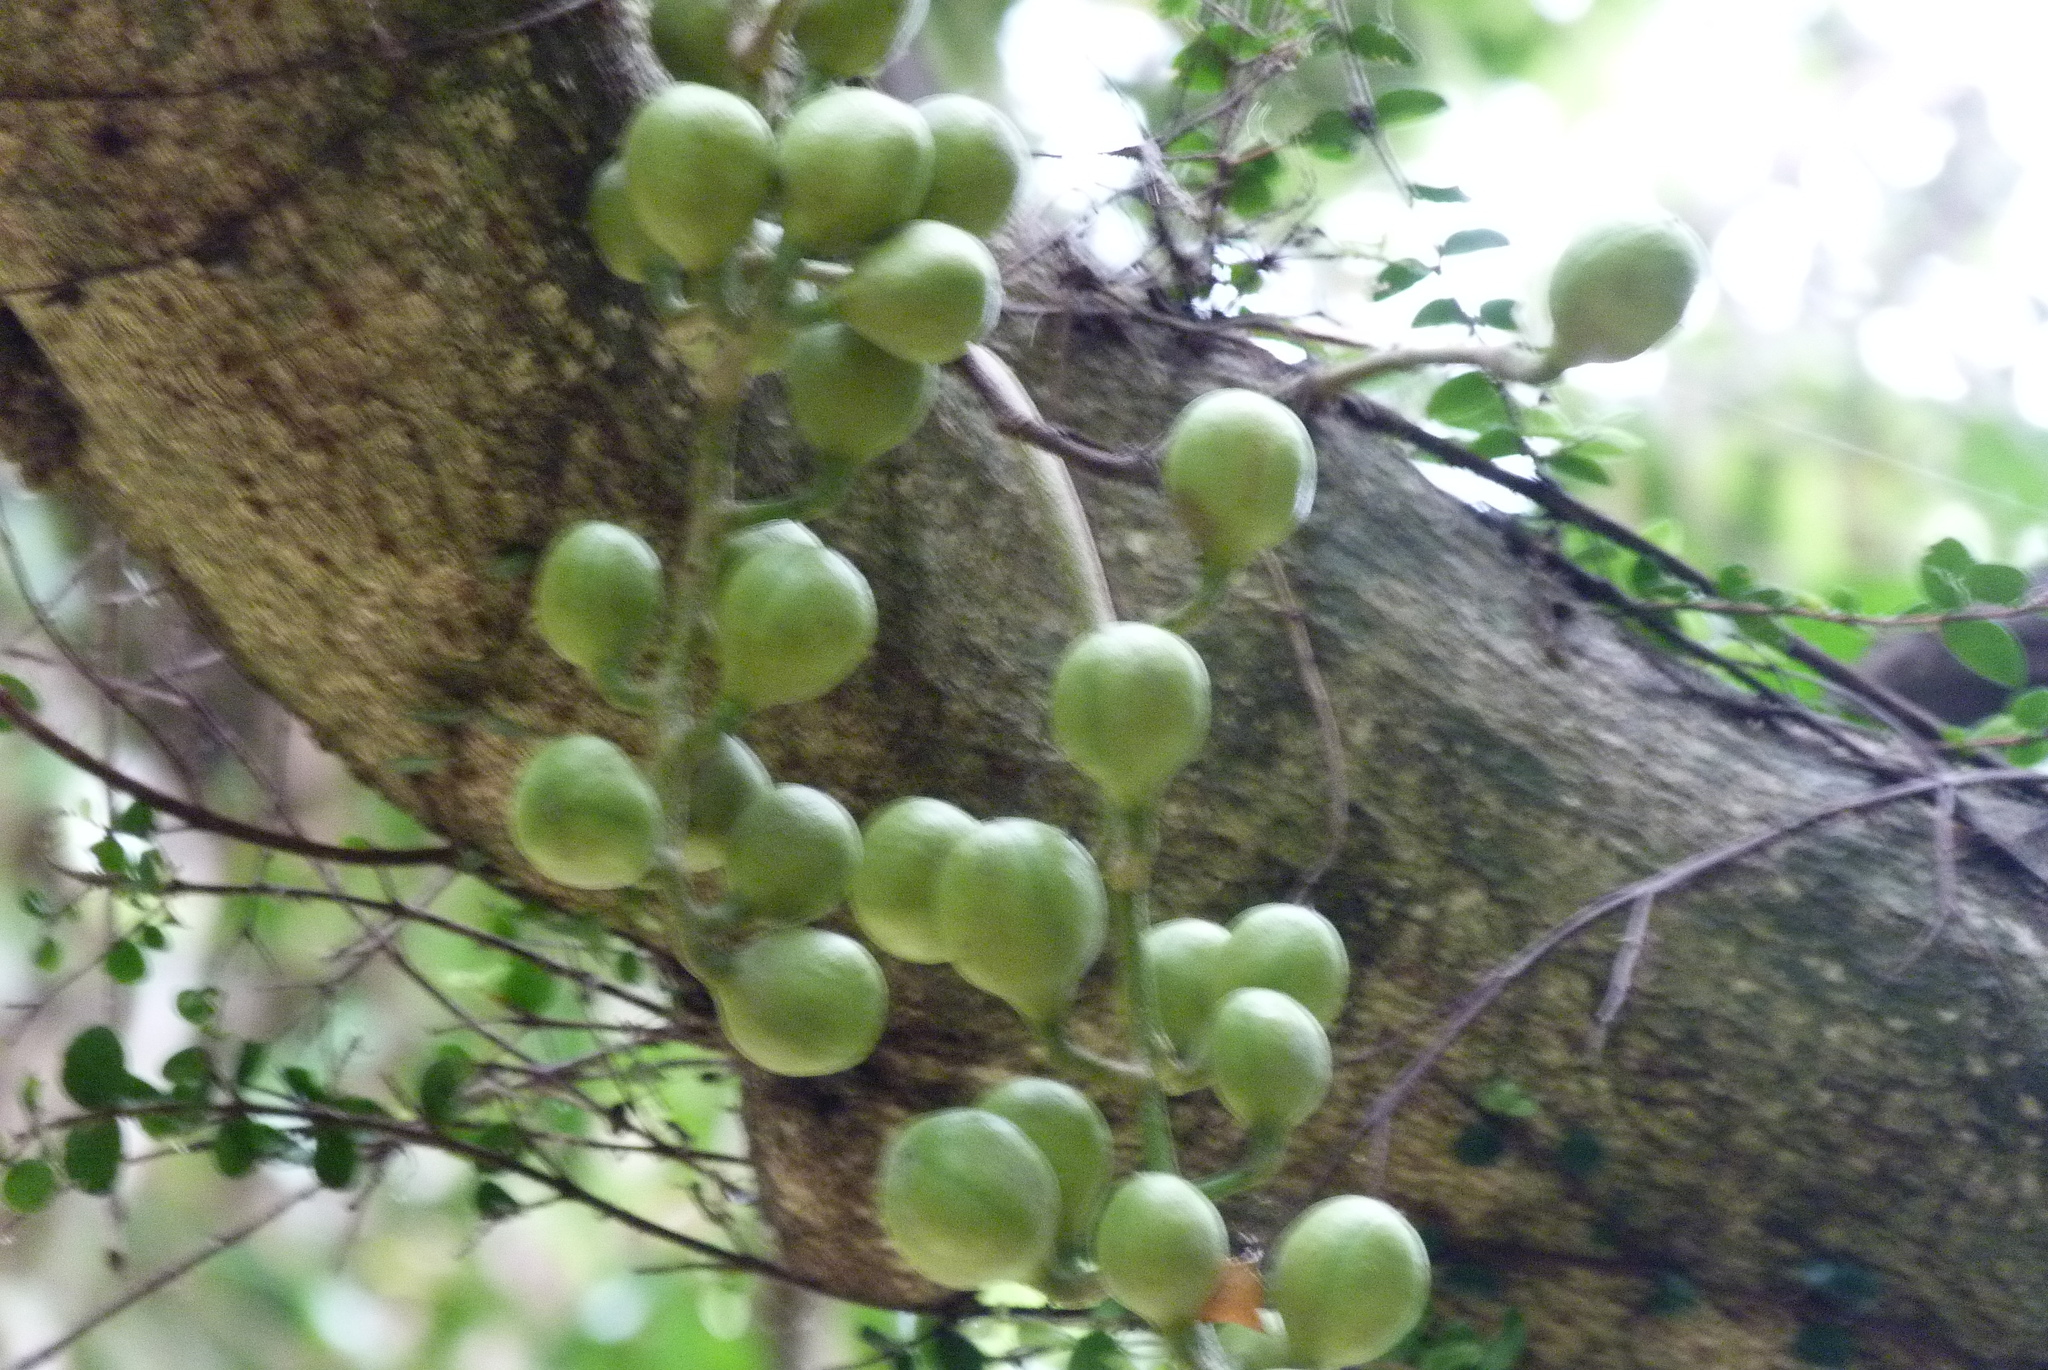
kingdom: Plantae
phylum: Tracheophyta
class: Magnoliopsida
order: Sapindales
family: Meliaceae
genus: Didymocheton
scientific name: Didymocheton spectabilis
